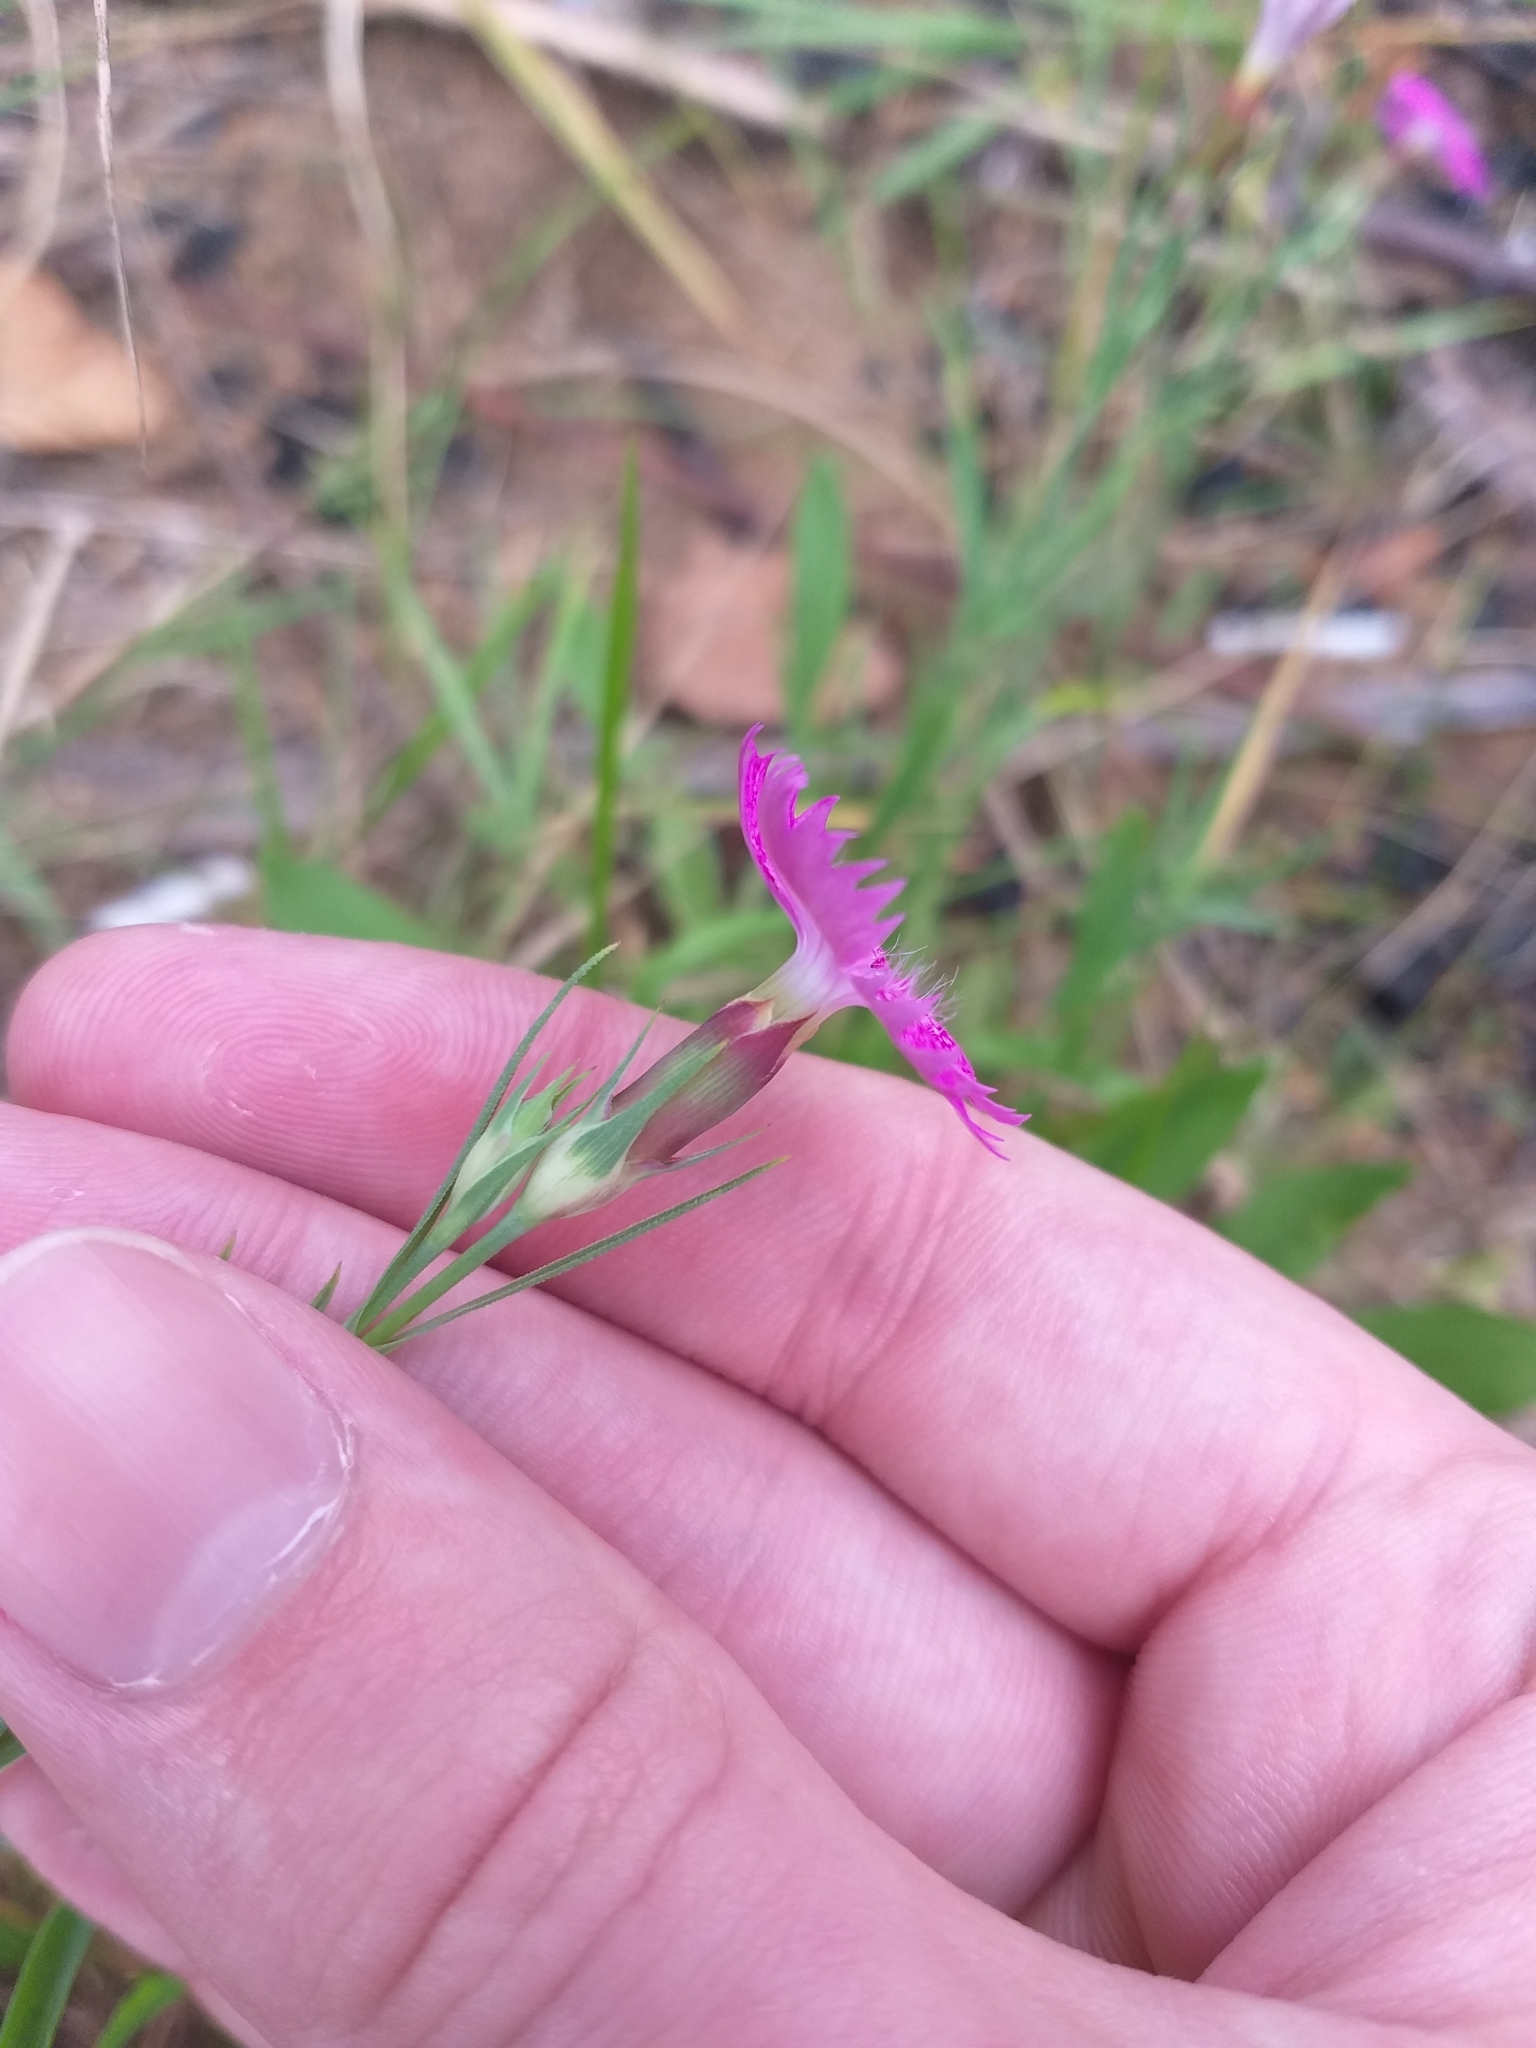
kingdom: Plantae
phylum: Tracheophyta
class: Magnoliopsida
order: Caryophyllales
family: Caryophyllaceae
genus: Dianthus
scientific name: Dianthus chinensis
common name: Rainbow pink
